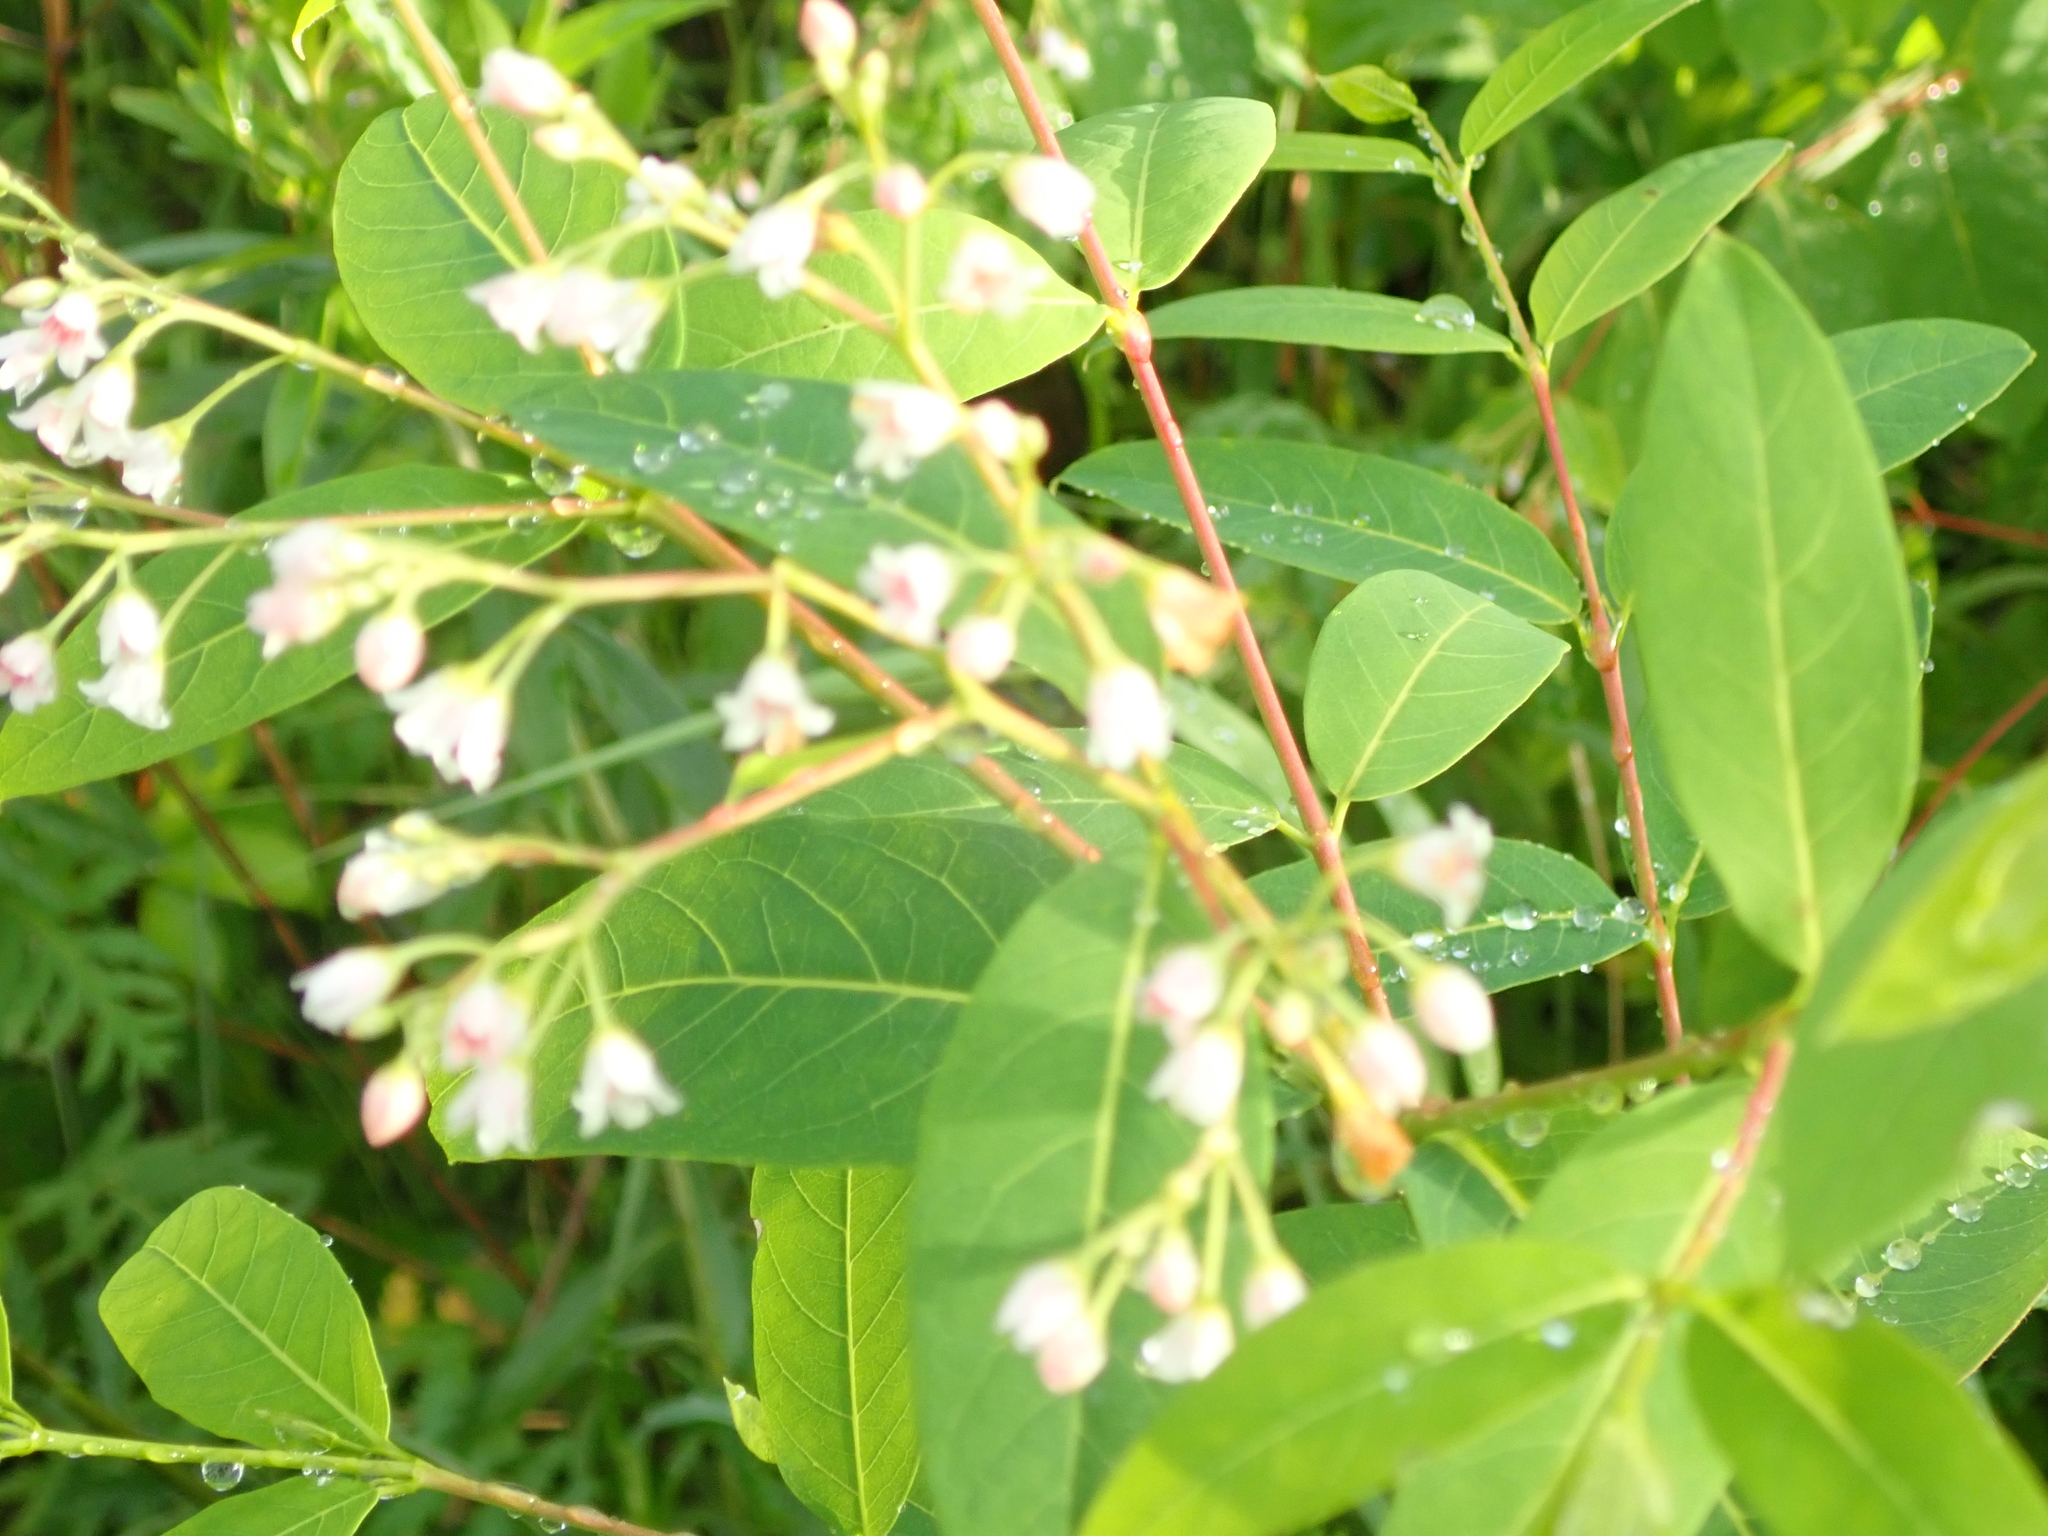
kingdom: Plantae
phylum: Tracheophyta
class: Magnoliopsida
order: Gentianales
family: Apocynaceae
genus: Apocynum
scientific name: Apocynum androsaemifolium
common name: Spreading dogbane
